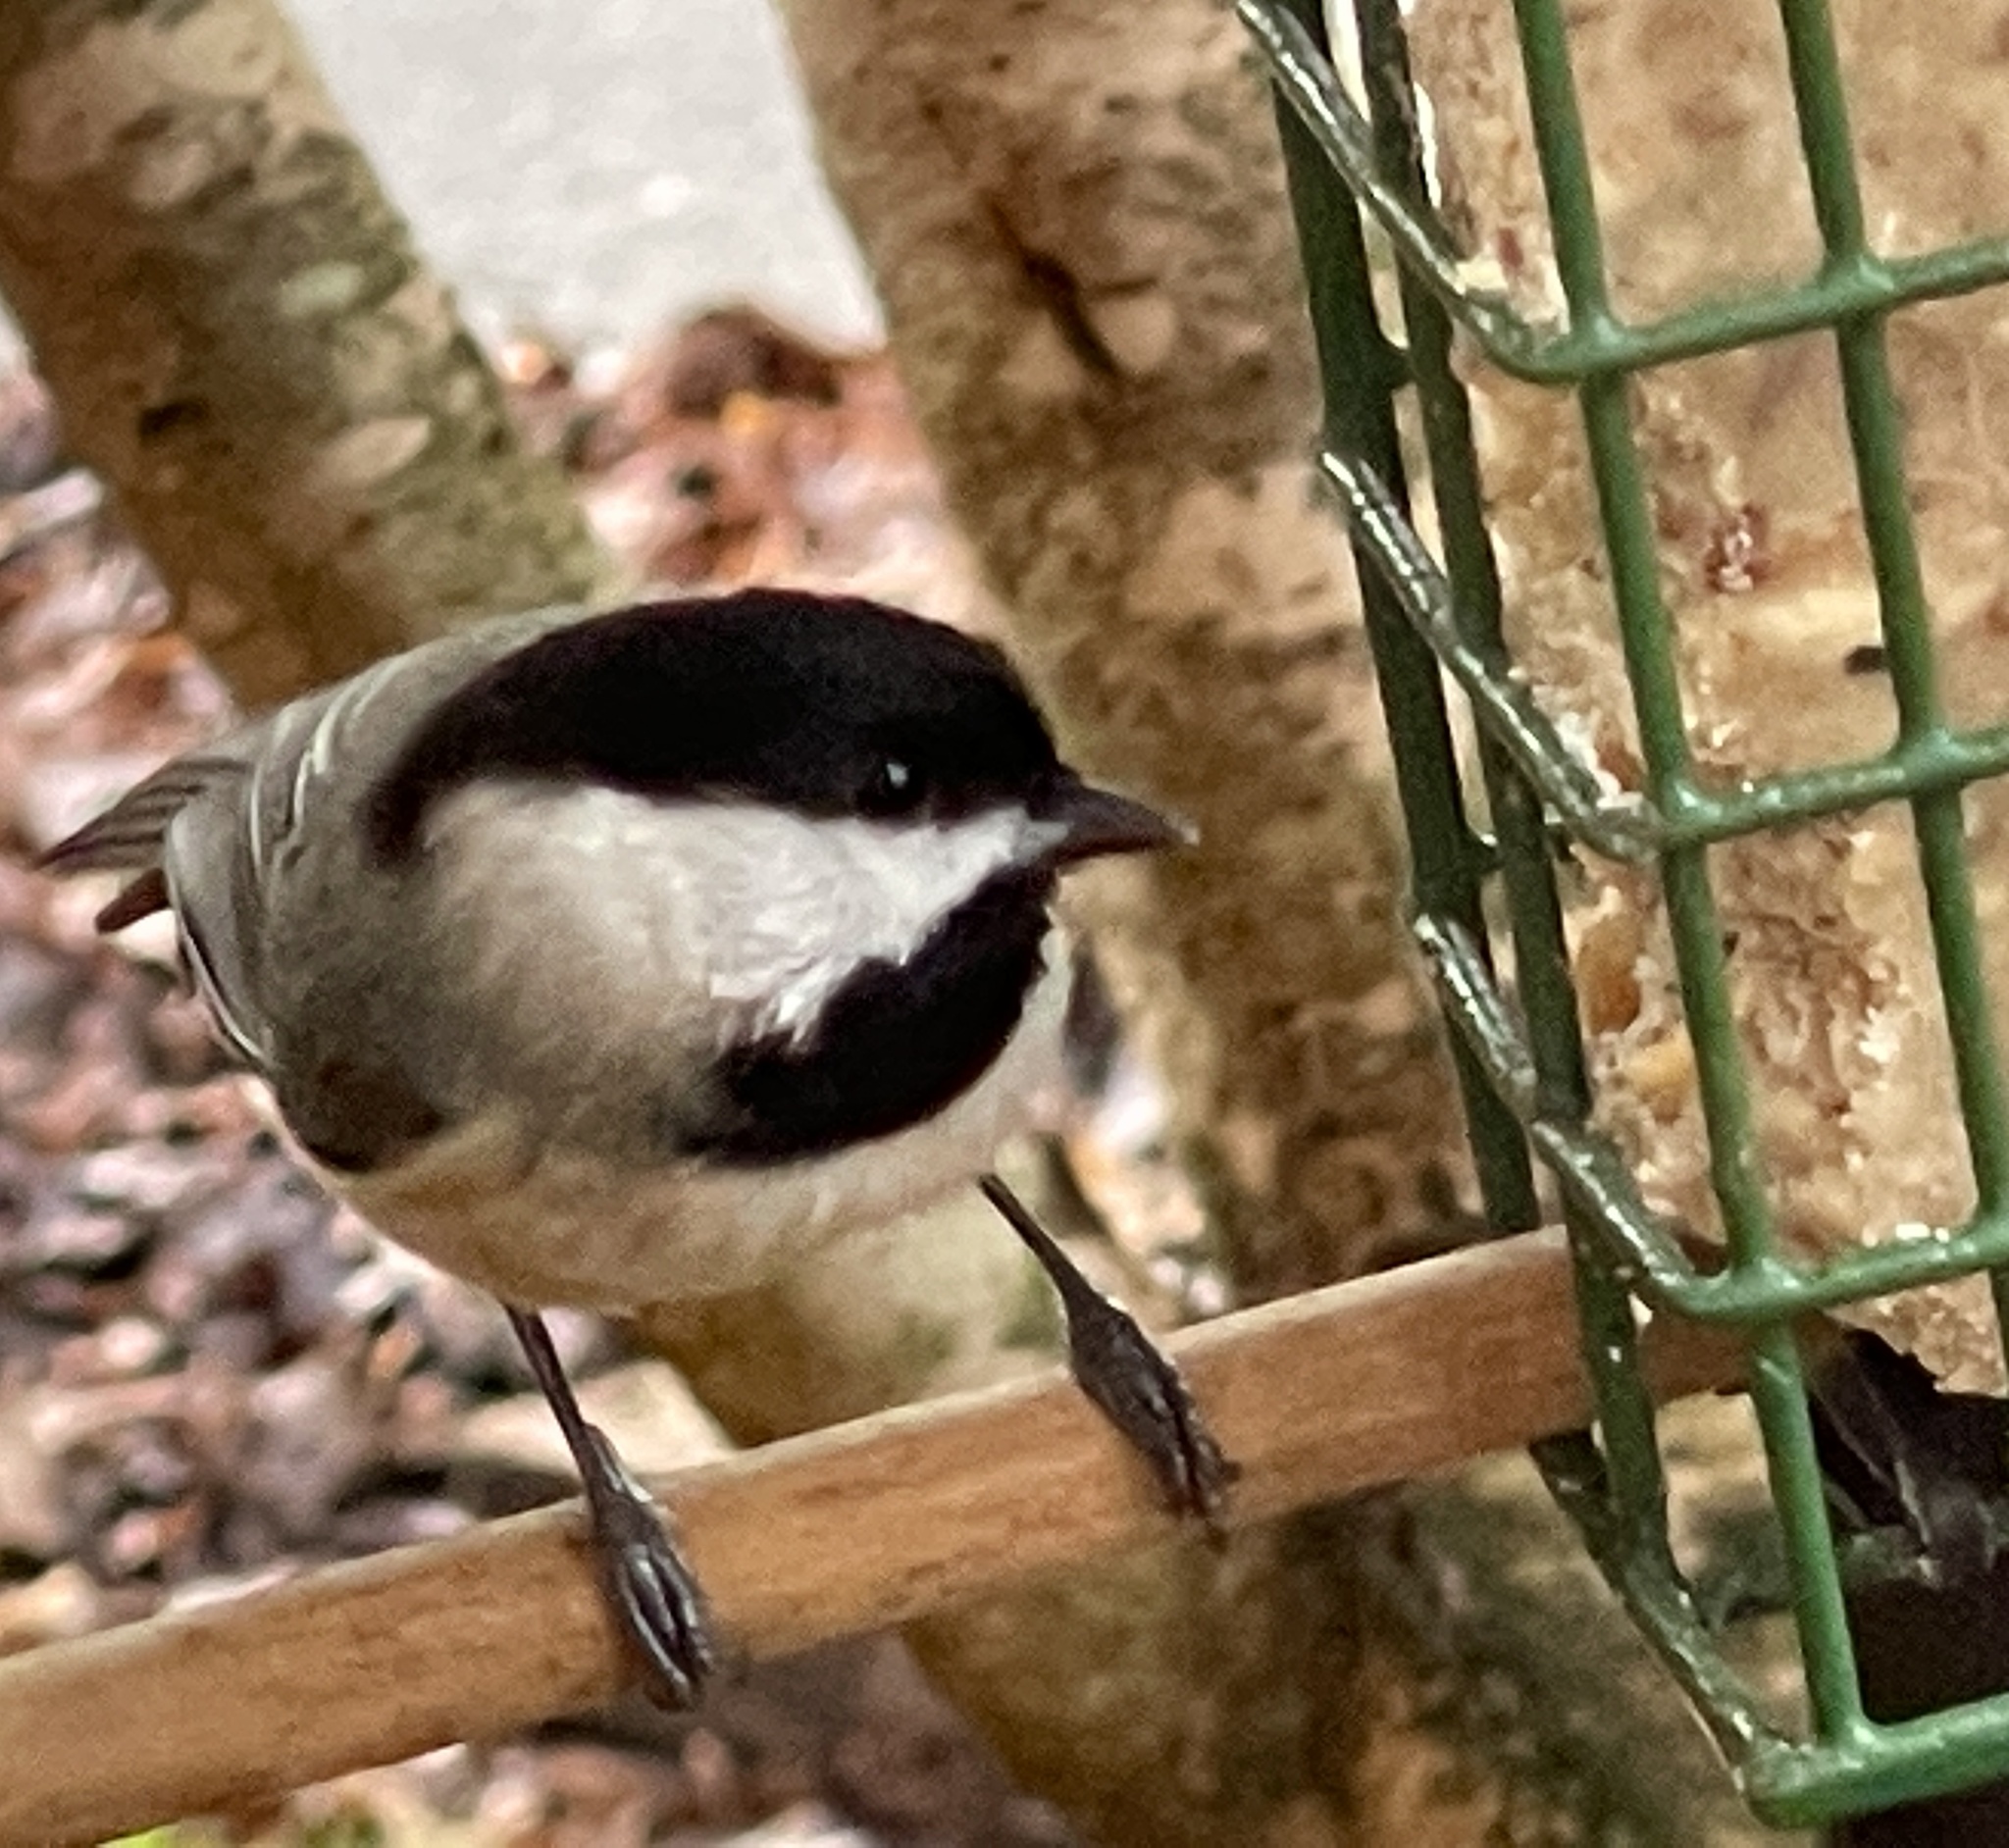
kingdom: Animalia
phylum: Chordata
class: Aves
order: Passeriformes
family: Paridae
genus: Poecile
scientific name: Poecile carolinensis
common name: Carolina chickadee
